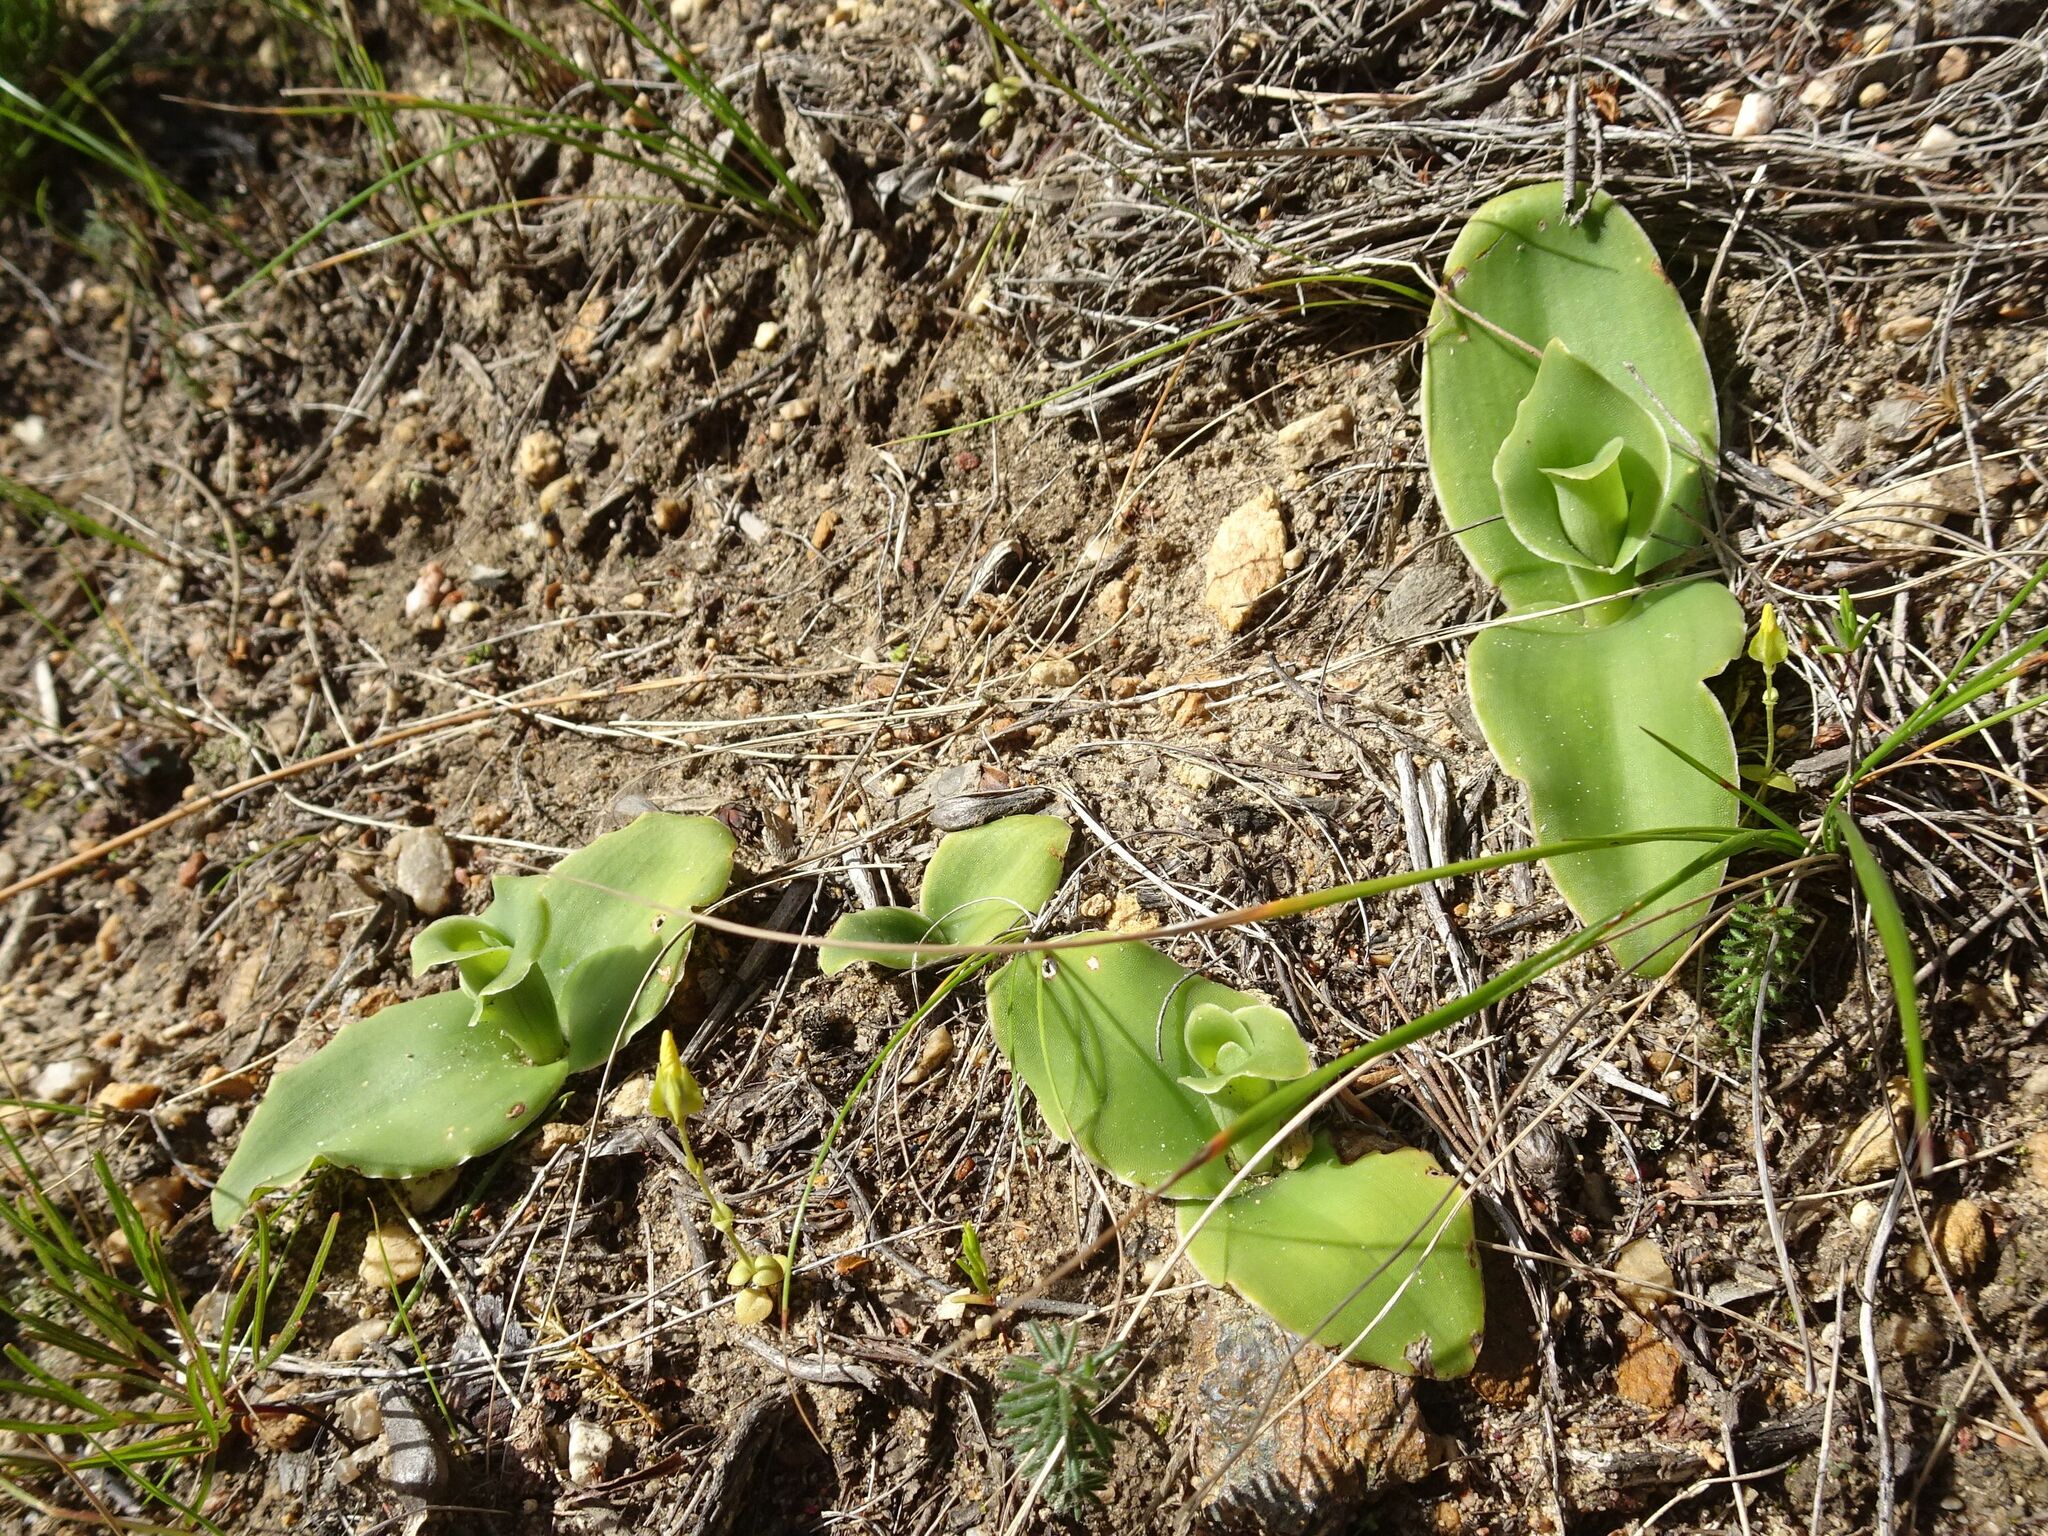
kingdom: Plantae
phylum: Tracheophyta
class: Liliopsida
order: Asparagales
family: Orchidaceae
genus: Satyrium
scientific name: Satyrium humile
